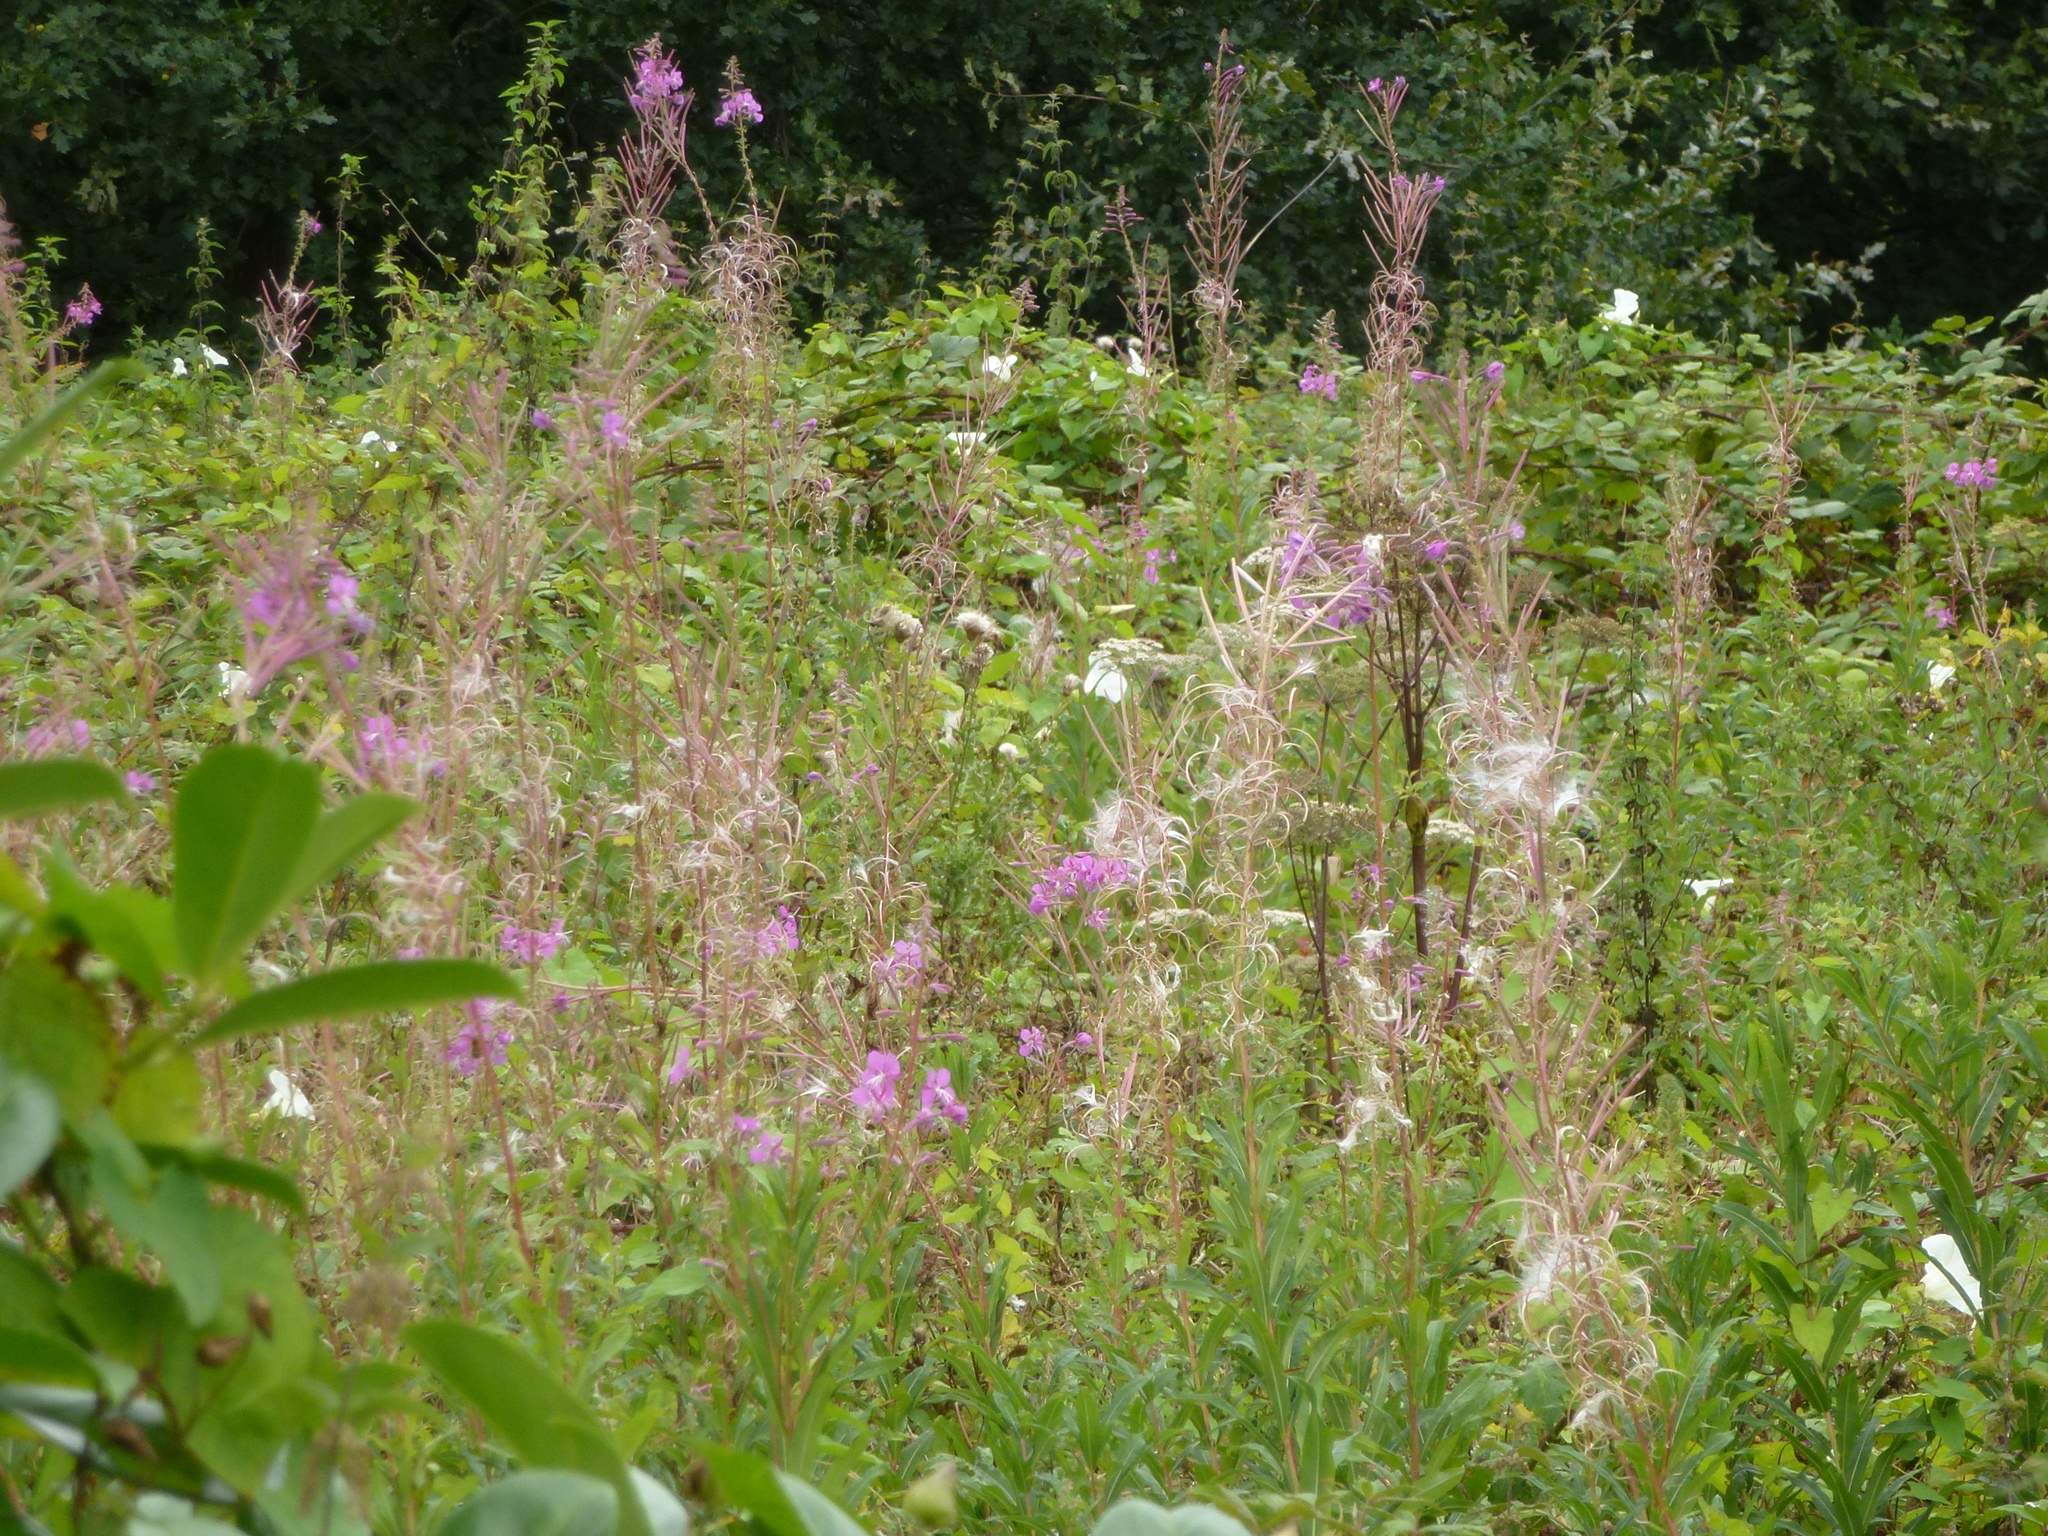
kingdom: Plantae
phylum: Tracheophyta
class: Magnoliopsida
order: Myrtales
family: Onagraceae
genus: Chamaenerion
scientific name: Chamaenerion angustifolium
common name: Fireweed
